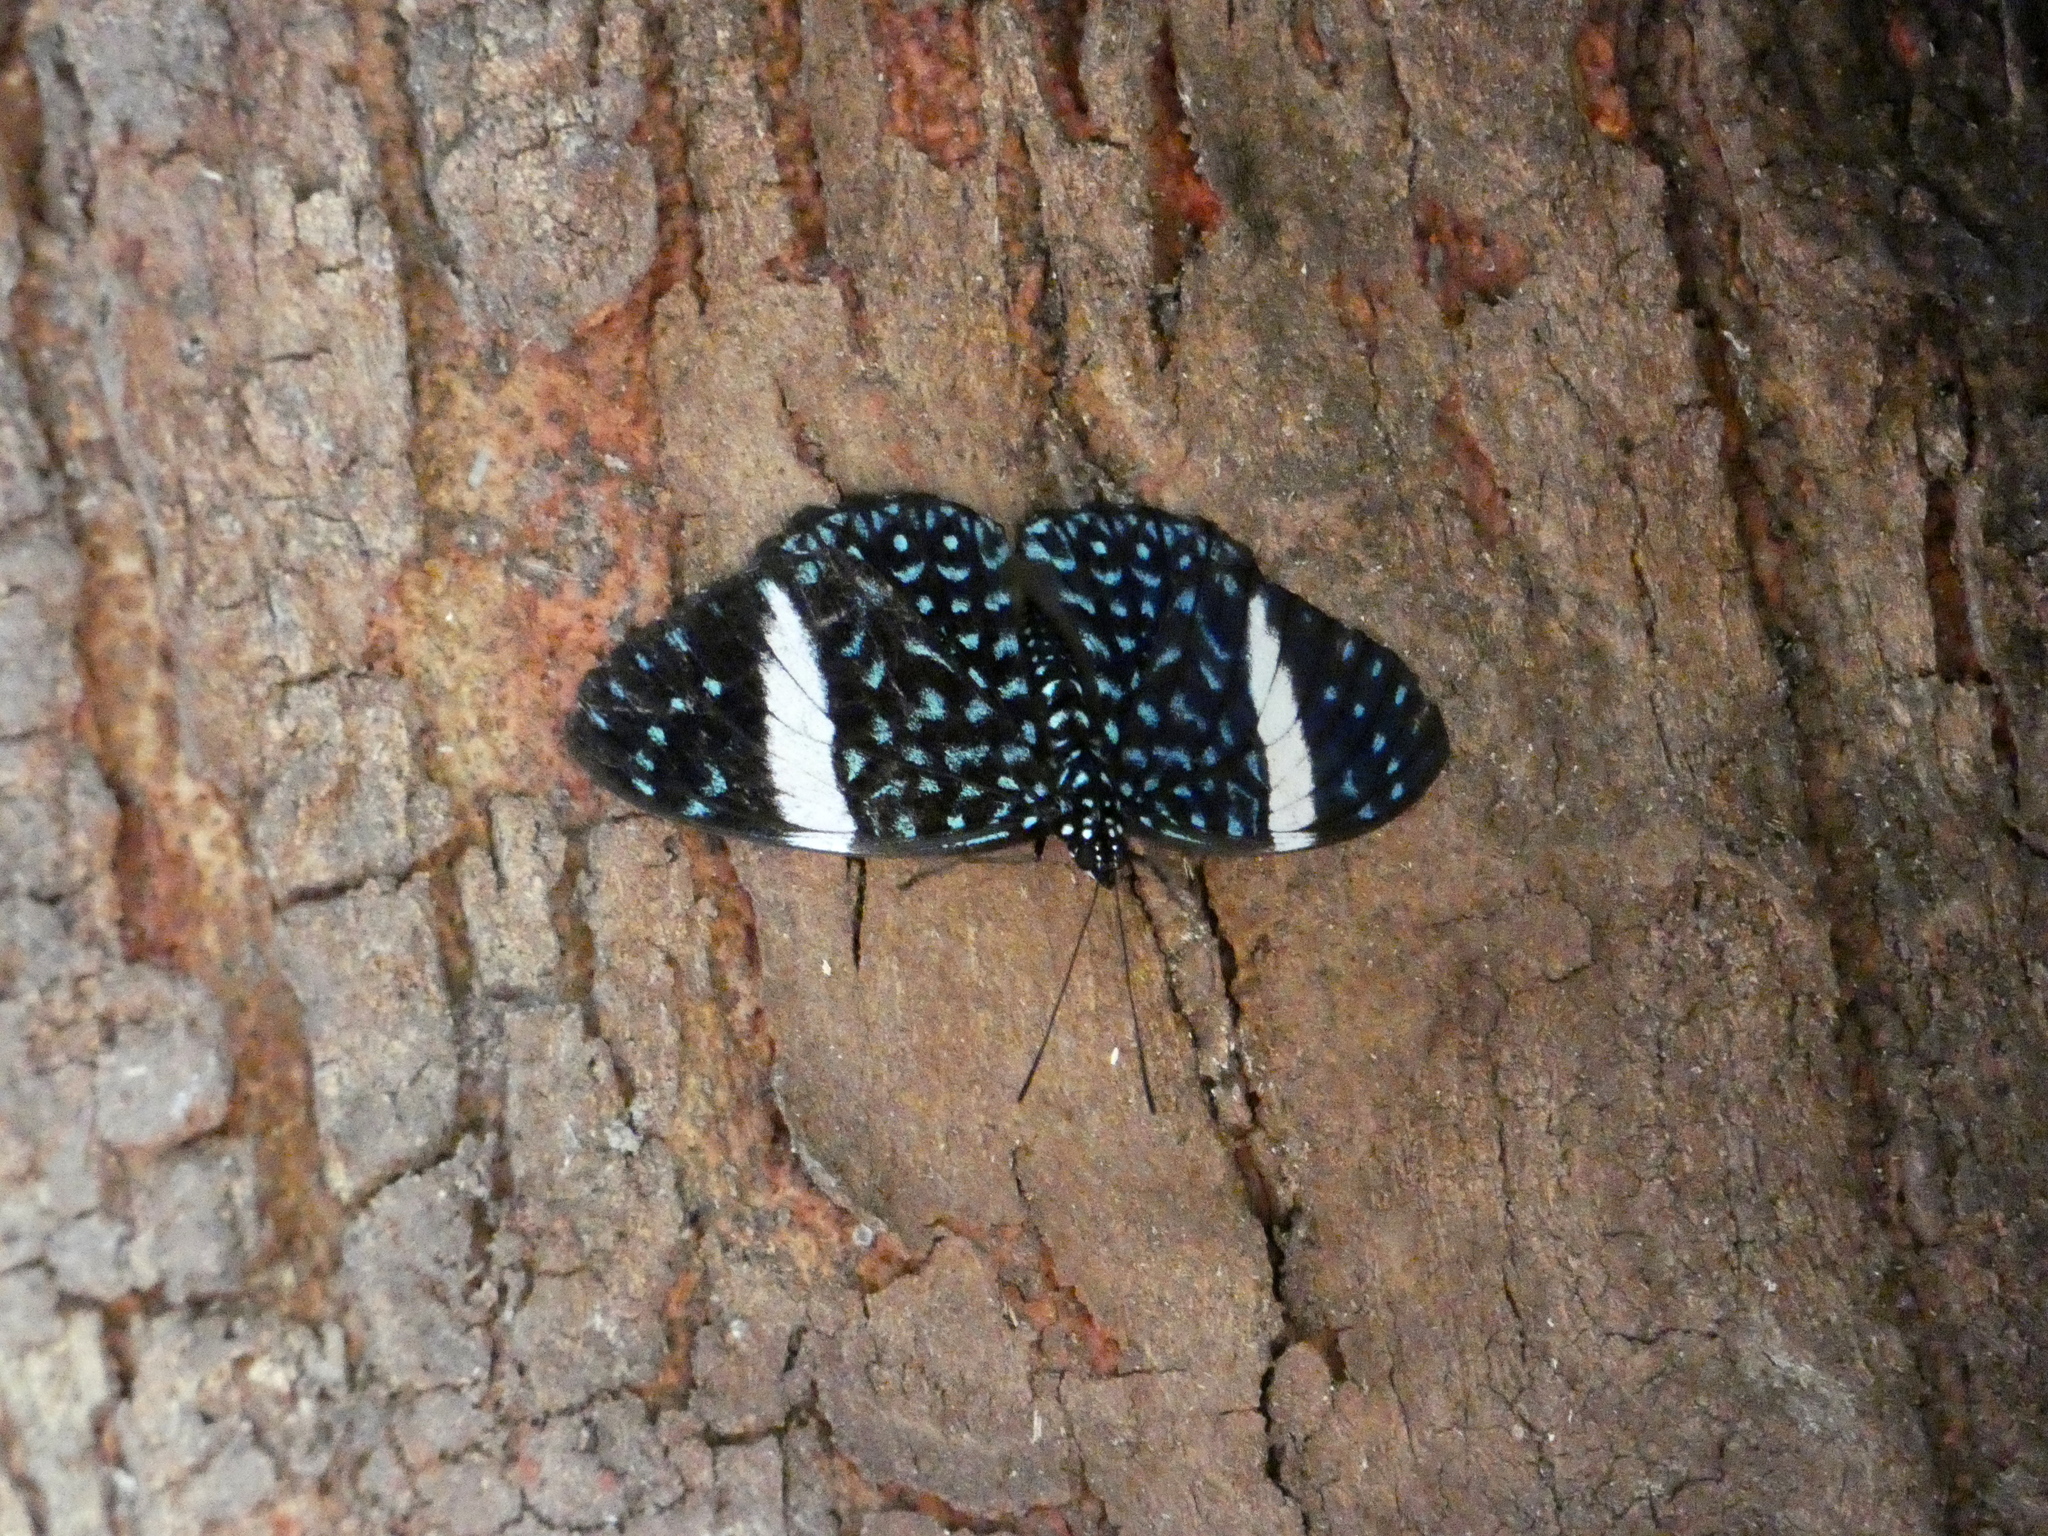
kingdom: Animalia
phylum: Arthropoda
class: Insecta
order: Lepidoptera
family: Nymphalidae
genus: Hamadryas
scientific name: Hamadryas laodamia
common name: Starry night cracker
